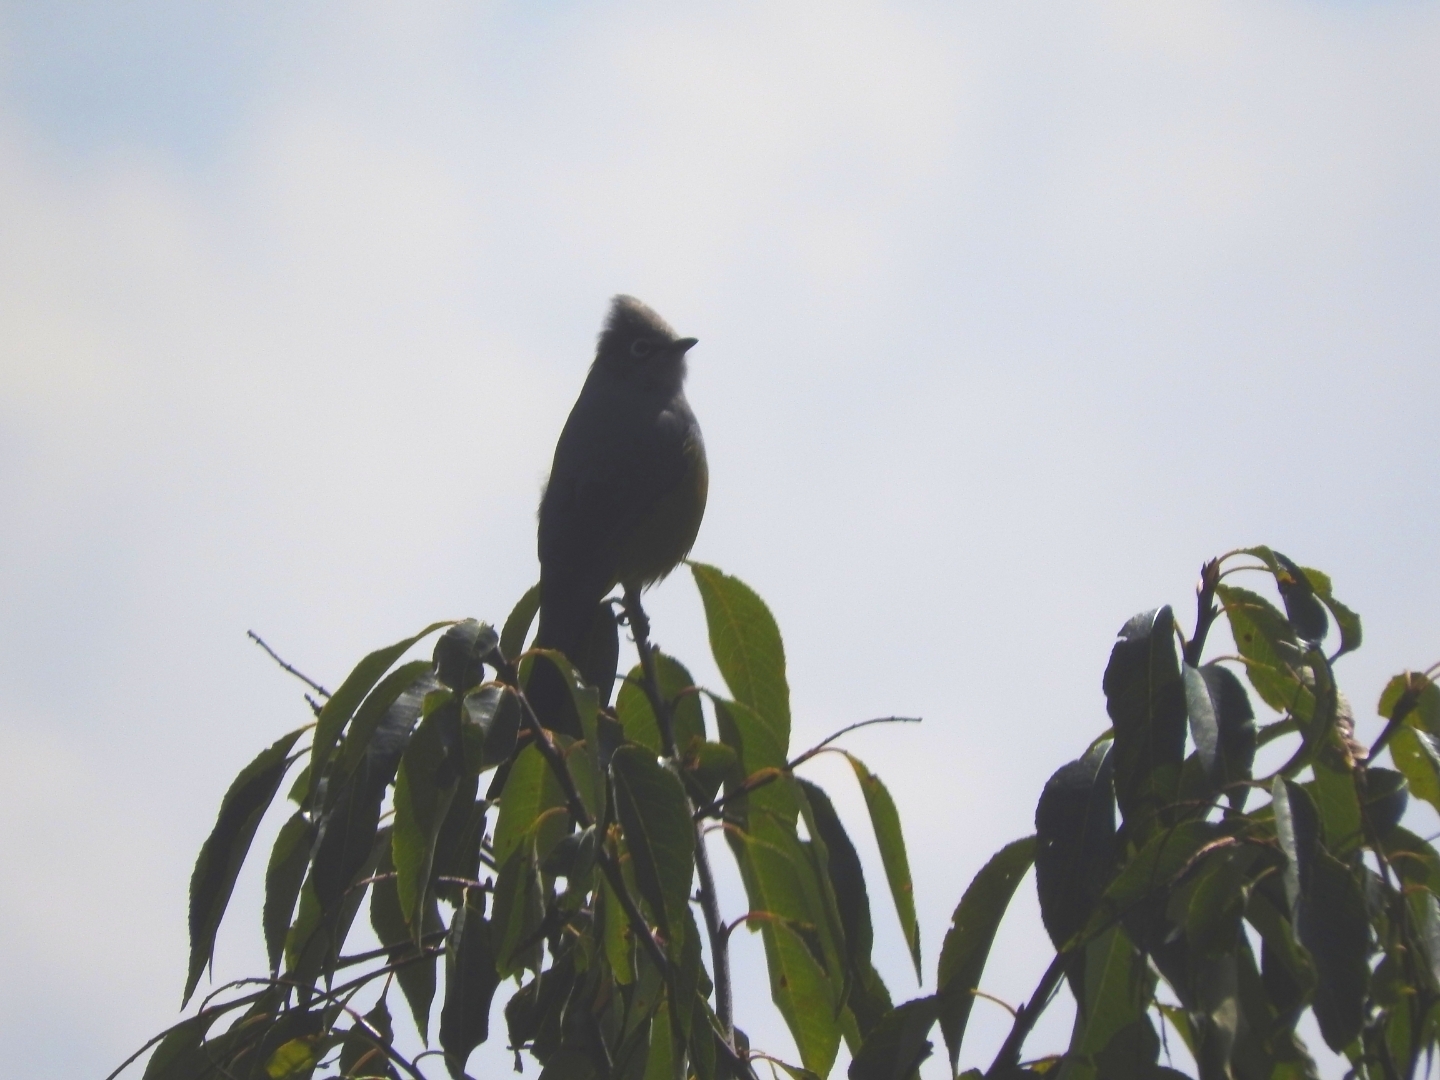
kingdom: Animalia
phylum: Chordata
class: Aves
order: Passeriformes
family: Ptilogonatidae
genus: Ptilogonys
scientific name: Ptilogonys cinereus
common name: Gray silky-flycatcher
